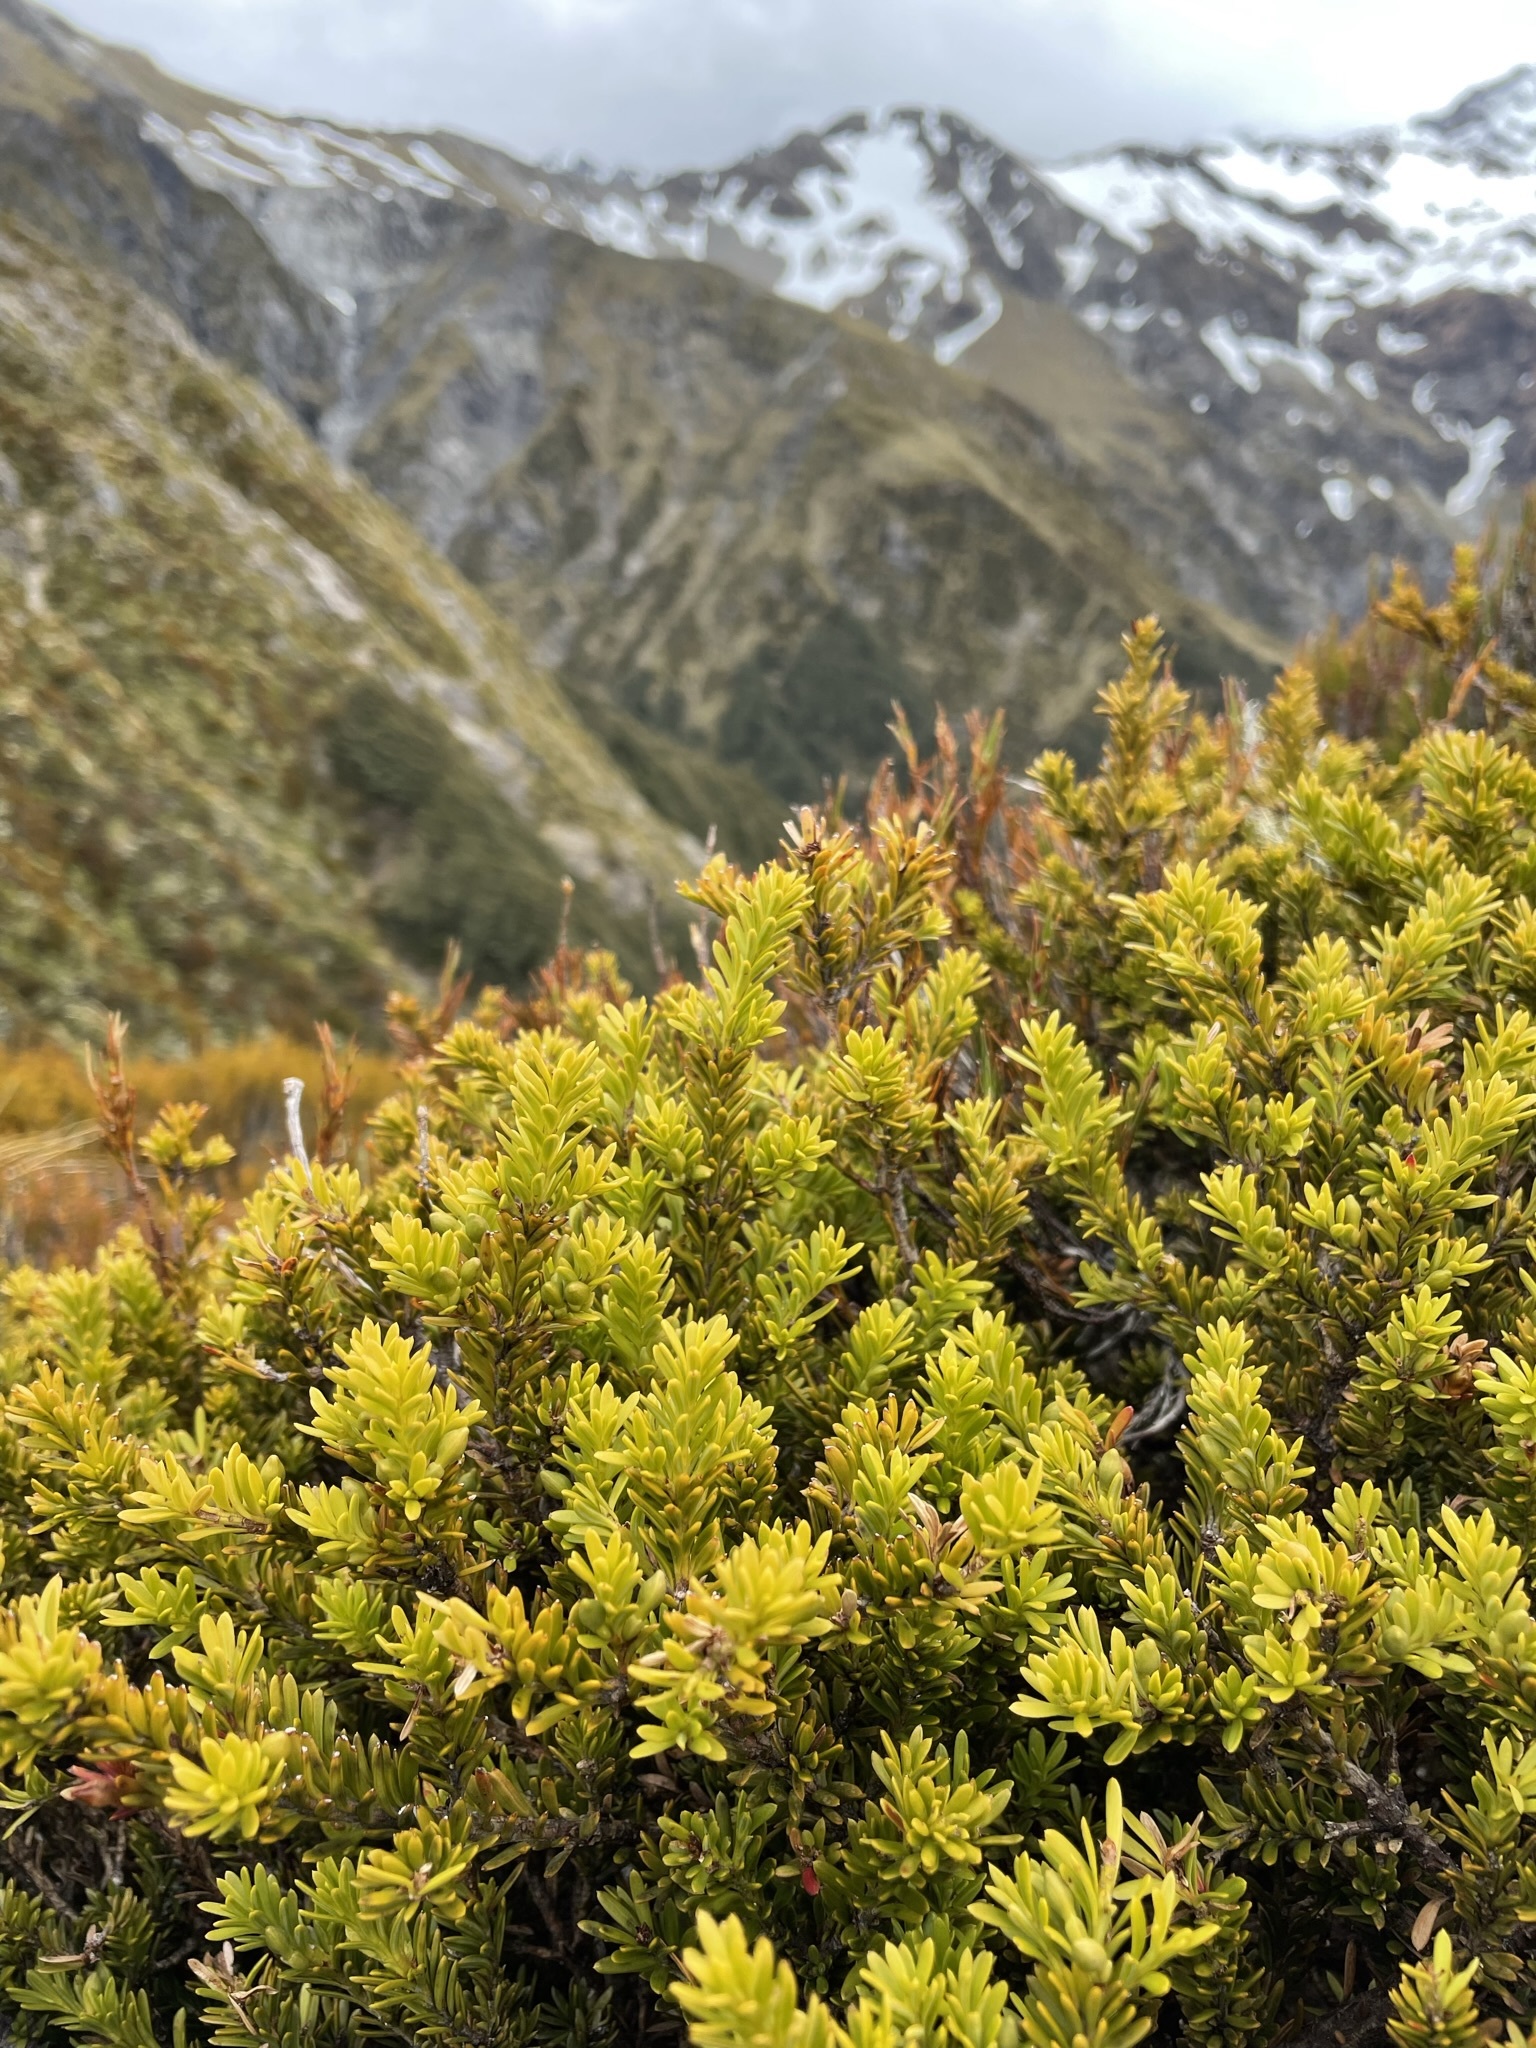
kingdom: Plantae
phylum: Tracheophyta
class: Pinopsida
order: Pinales
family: Podocarpaceae
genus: Podocarpus
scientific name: Podocarpus nivalis
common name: Alpine totara
